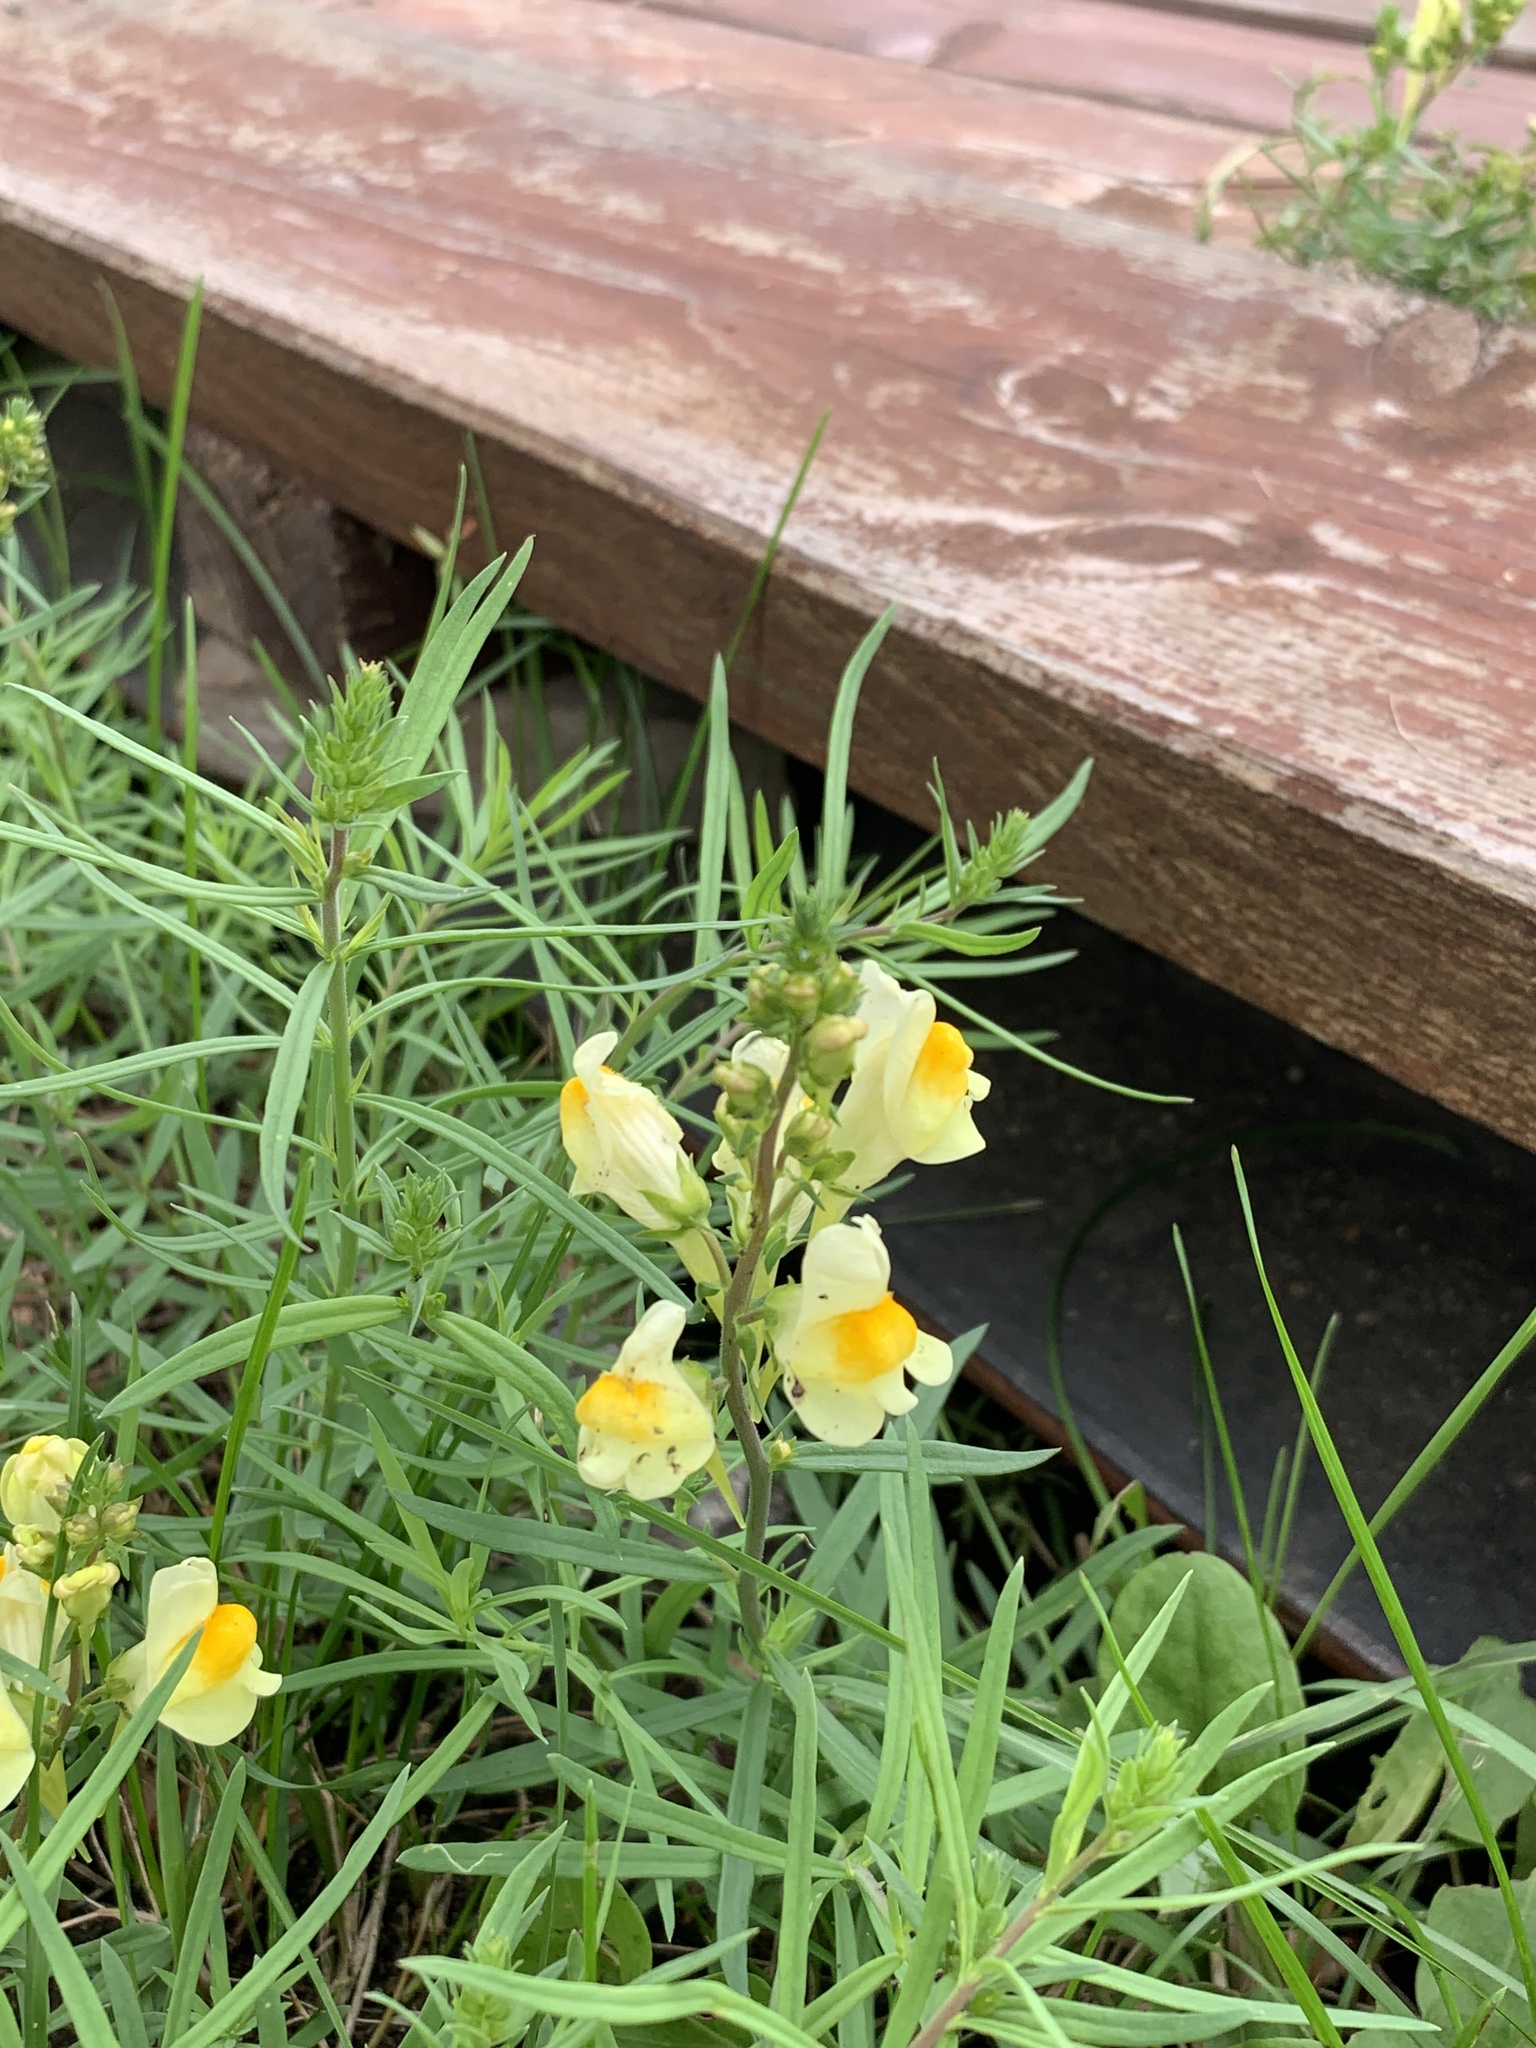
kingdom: Plantae
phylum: Tracheophyta
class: Magnoliopsida
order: Lamiales
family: Plantaginaceae
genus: Linaria
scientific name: Linaria vulgaris
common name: Butter and eggs
